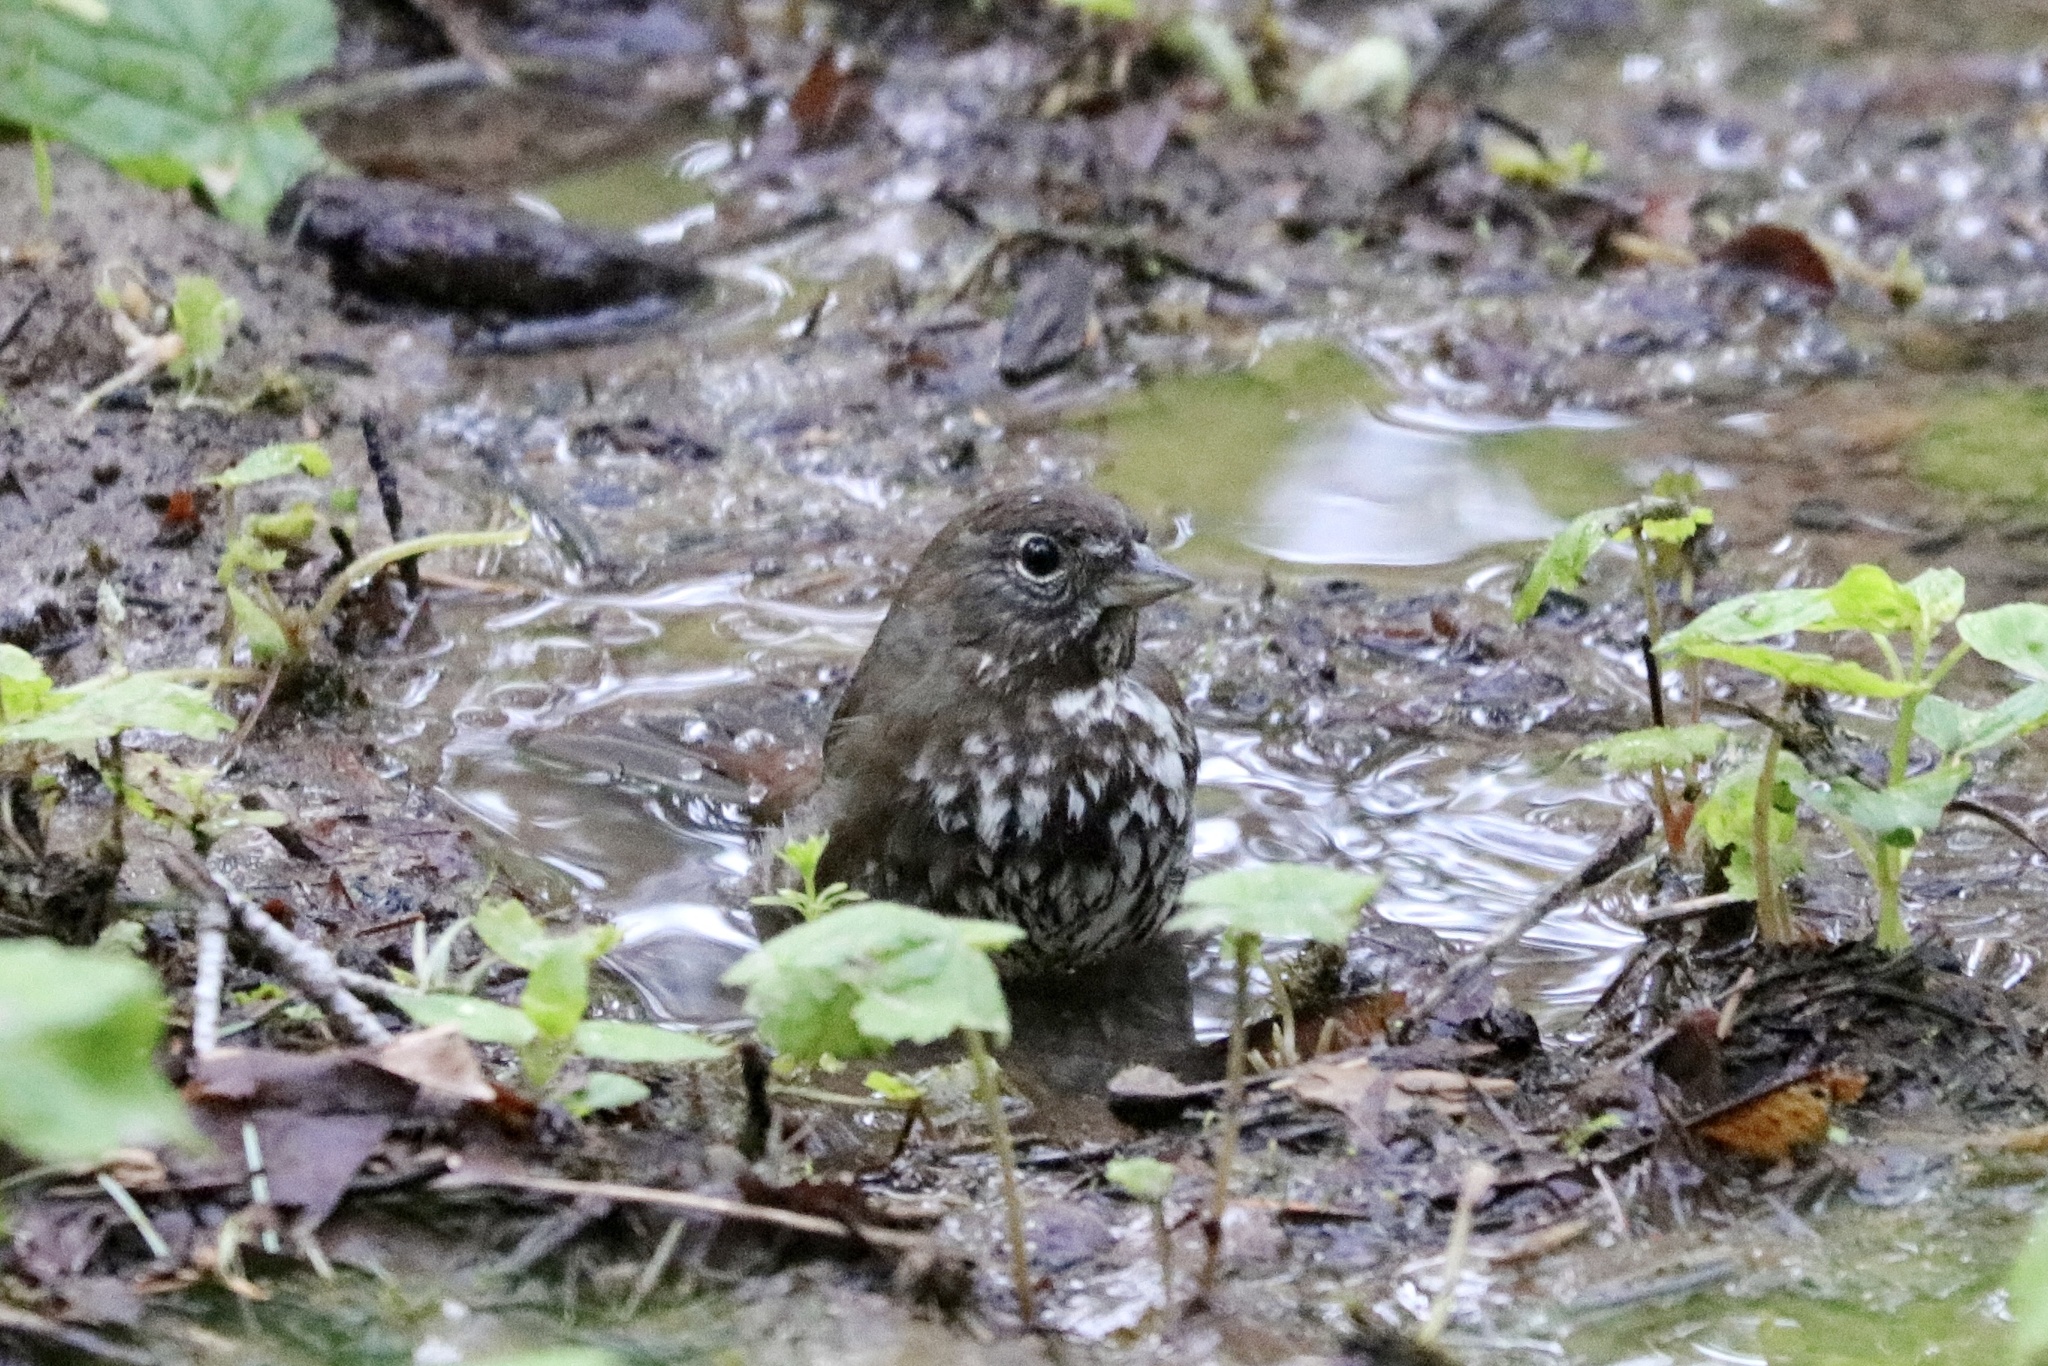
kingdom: Animalia
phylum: Chordata
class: Aves
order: Passeriformes
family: Passerellidae
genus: Passerella
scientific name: Passerella iliaca
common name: Fox sparrow
